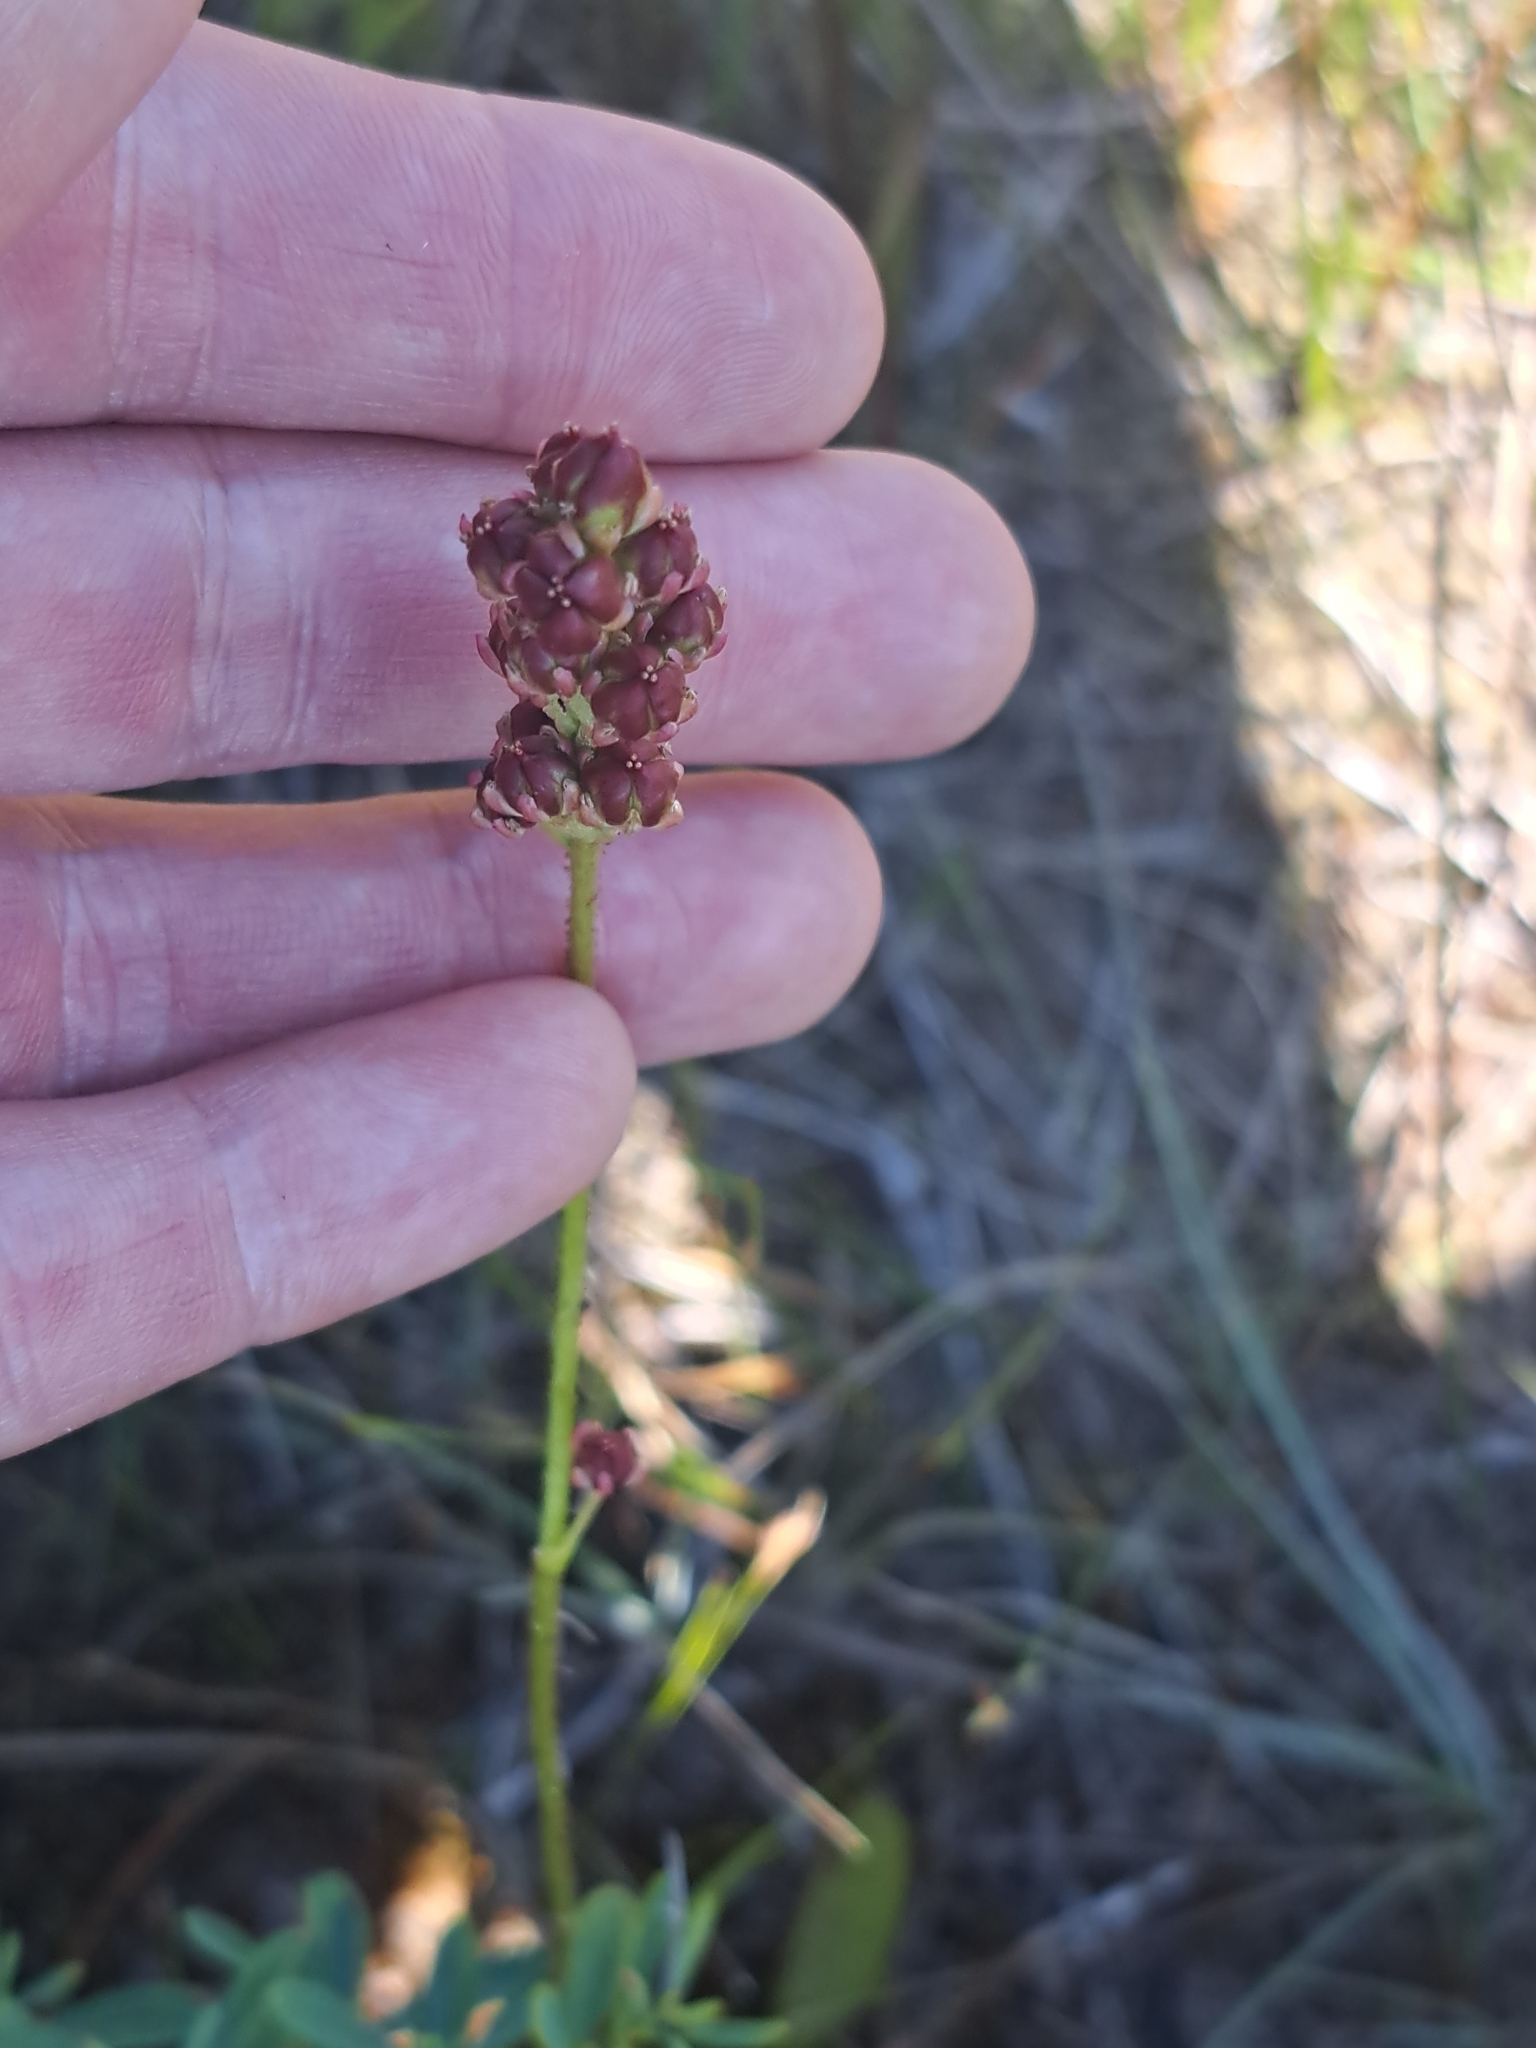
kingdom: Plantae
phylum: Tracheophyta
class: Liliopsida
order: Alismatales
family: Tofieldiaceae
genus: Triantha
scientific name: Triantha glutinosa
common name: Glutinous tofieldia
